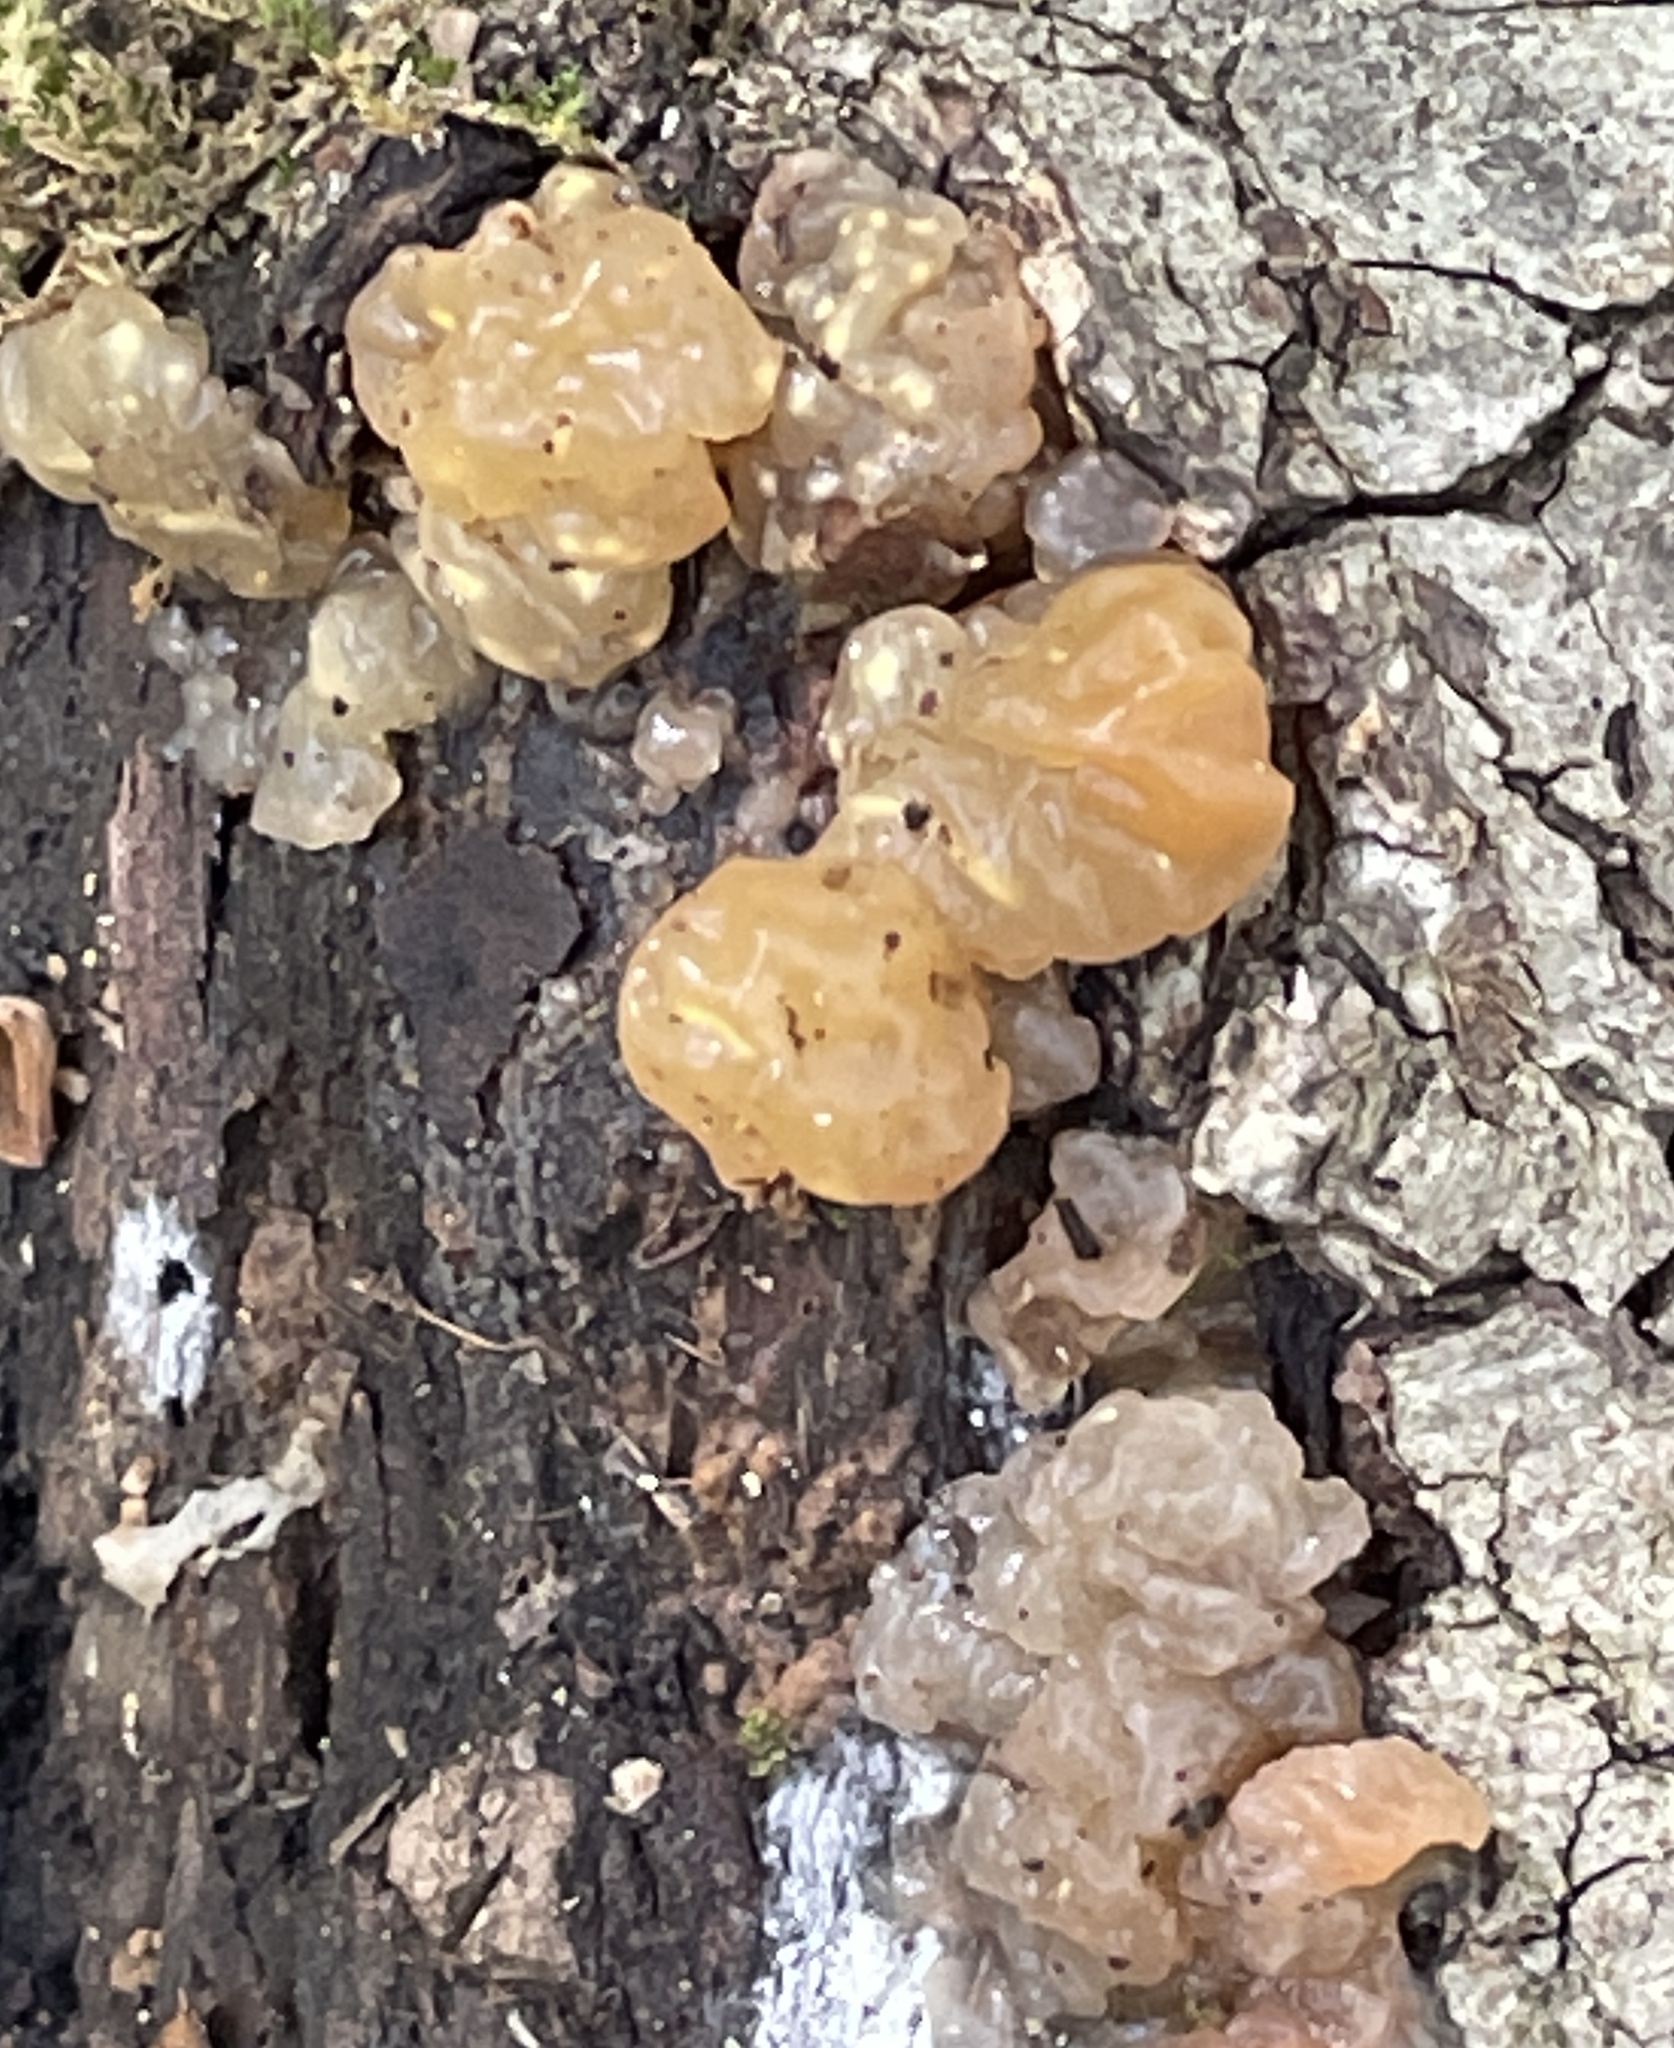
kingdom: Fungi
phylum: Basidiomycota
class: Agaricomycetes
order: Auriculariales
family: Hyaloriaceae
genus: Myxarium
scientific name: Myxarium nucleatum
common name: Crystal brain fungus
